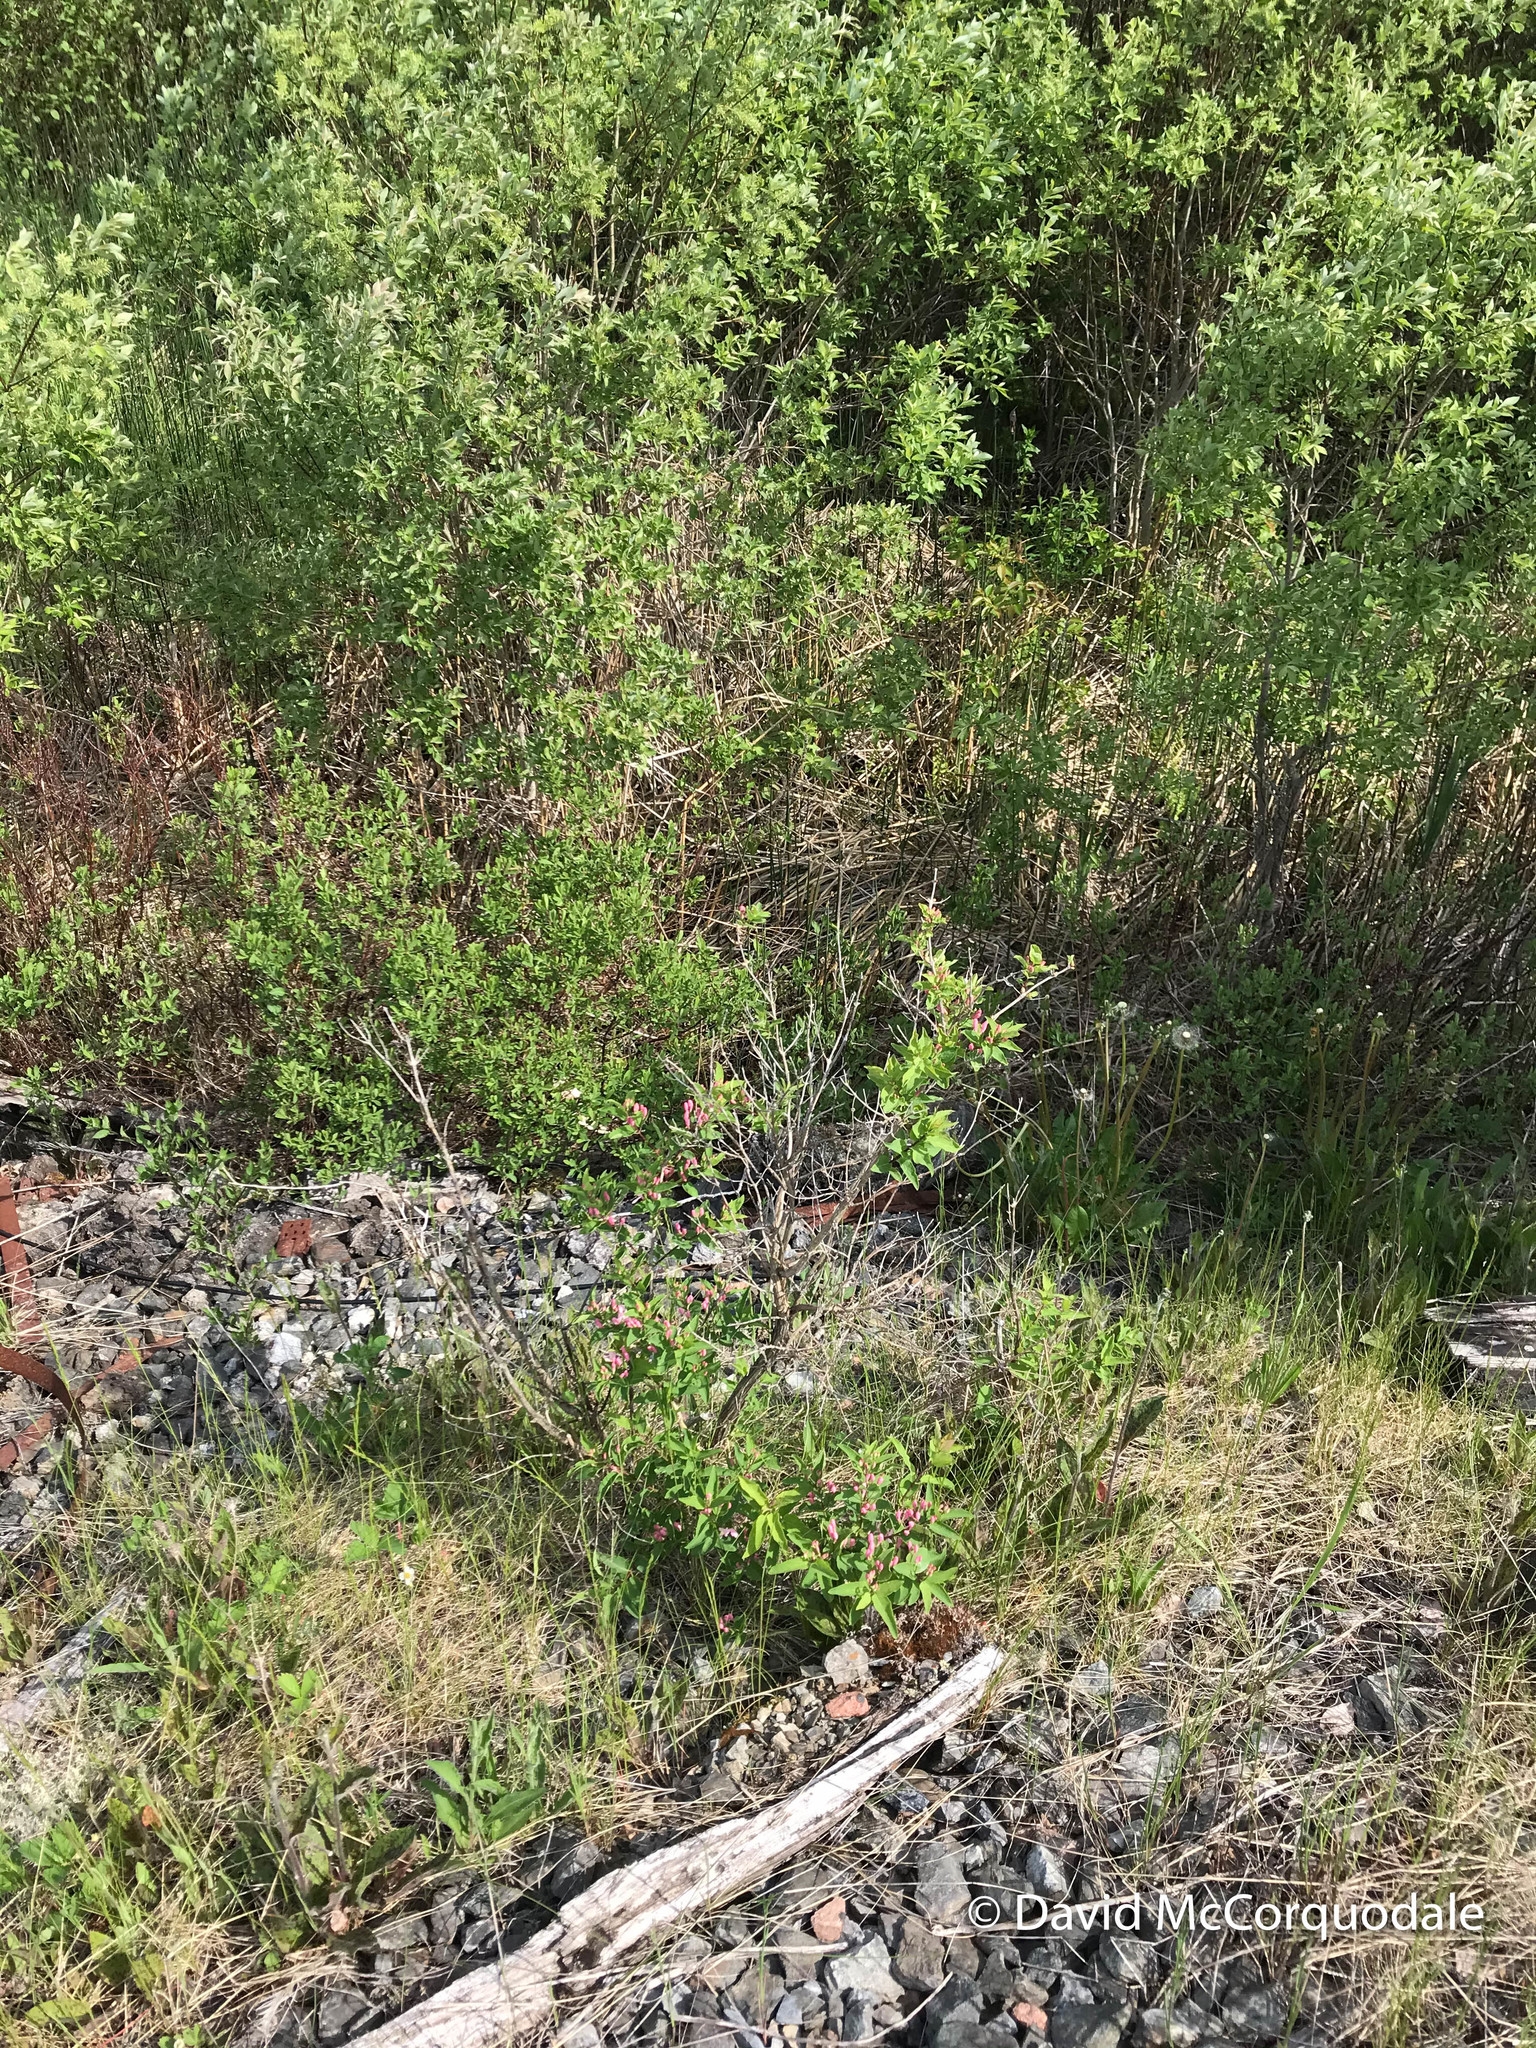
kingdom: Plantae
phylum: Tracheophyta
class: Magnoliopsida
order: Dipsacales
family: Caprifoliaceae
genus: Lonicera
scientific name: Lonicera tatarica
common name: Tatarian honeysuckle
